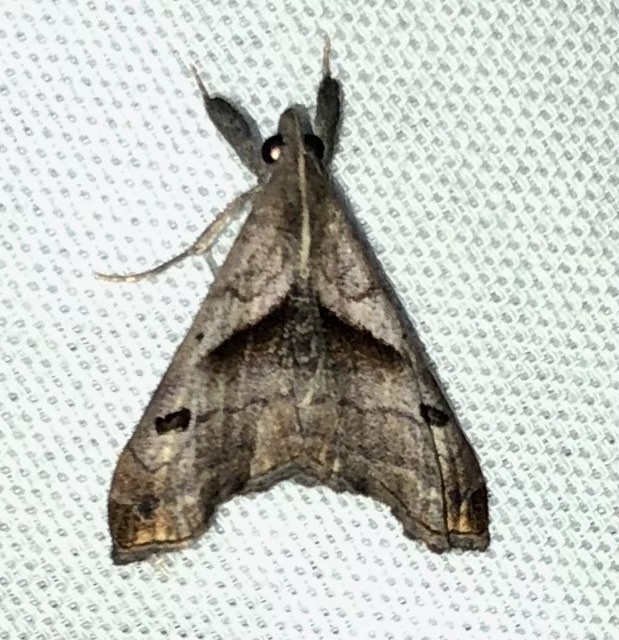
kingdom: Animalia
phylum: Arthropoda
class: Insecta
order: Lepidoptera
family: Erebidae
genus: Palthis
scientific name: Palthis angulalis
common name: Dark-spotted palthis moth
